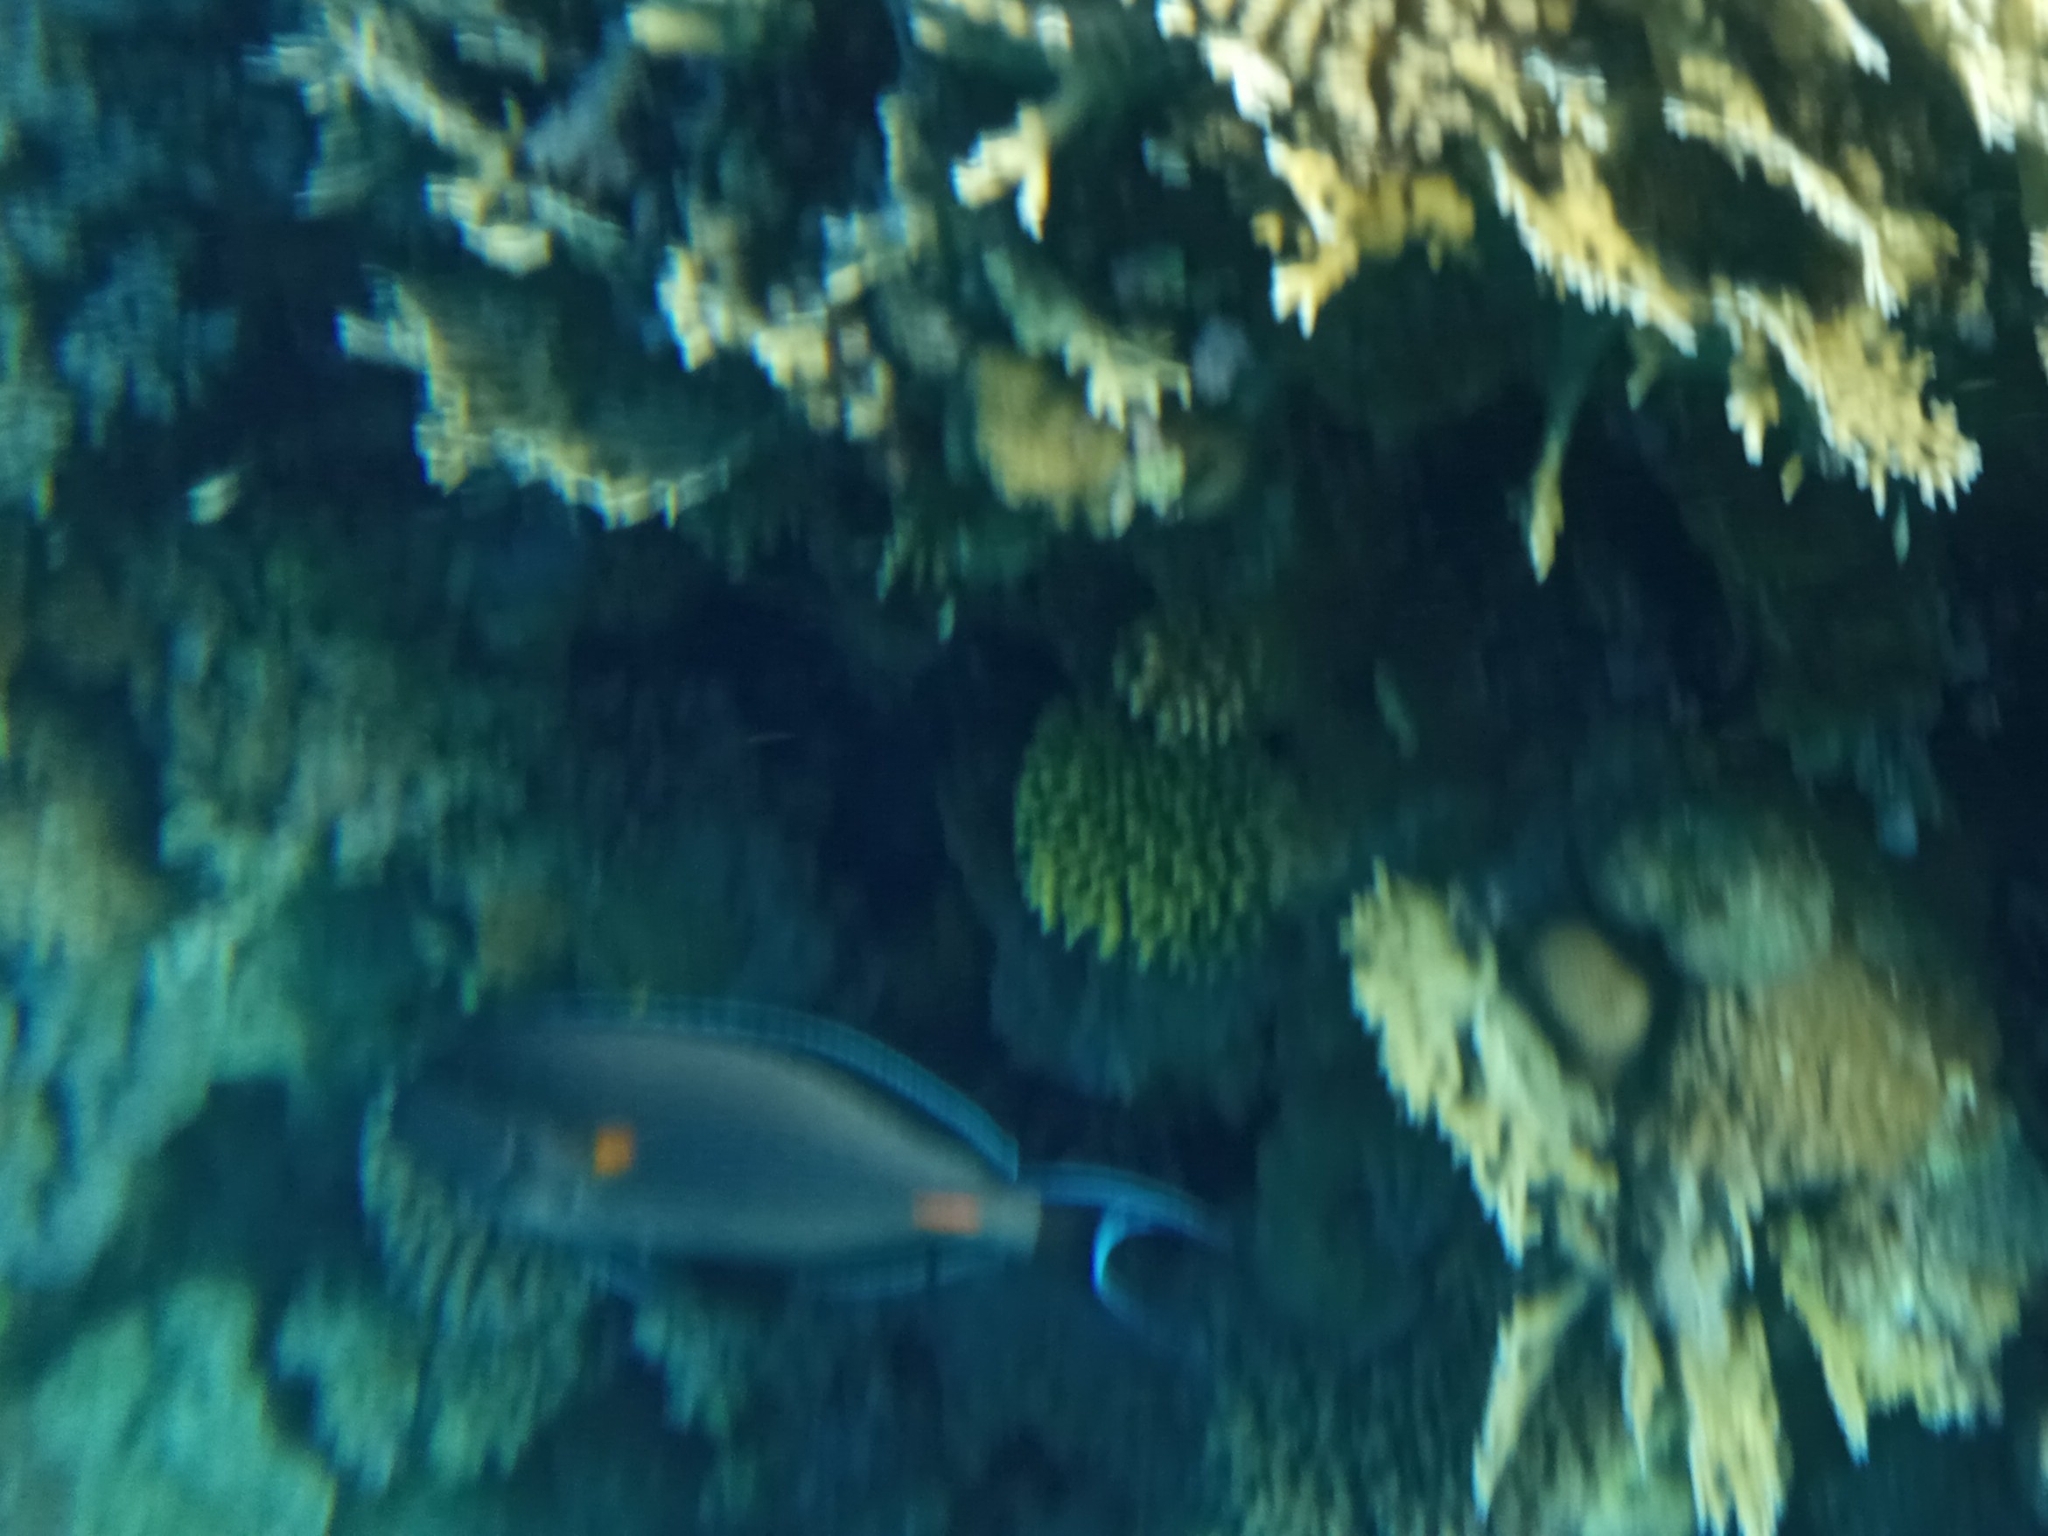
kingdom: Animalia
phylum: Chordata
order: Perciformes
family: Acanthuridae
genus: Acanthurus
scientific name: Acanthurus sohal
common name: Red sea surgeonfish
